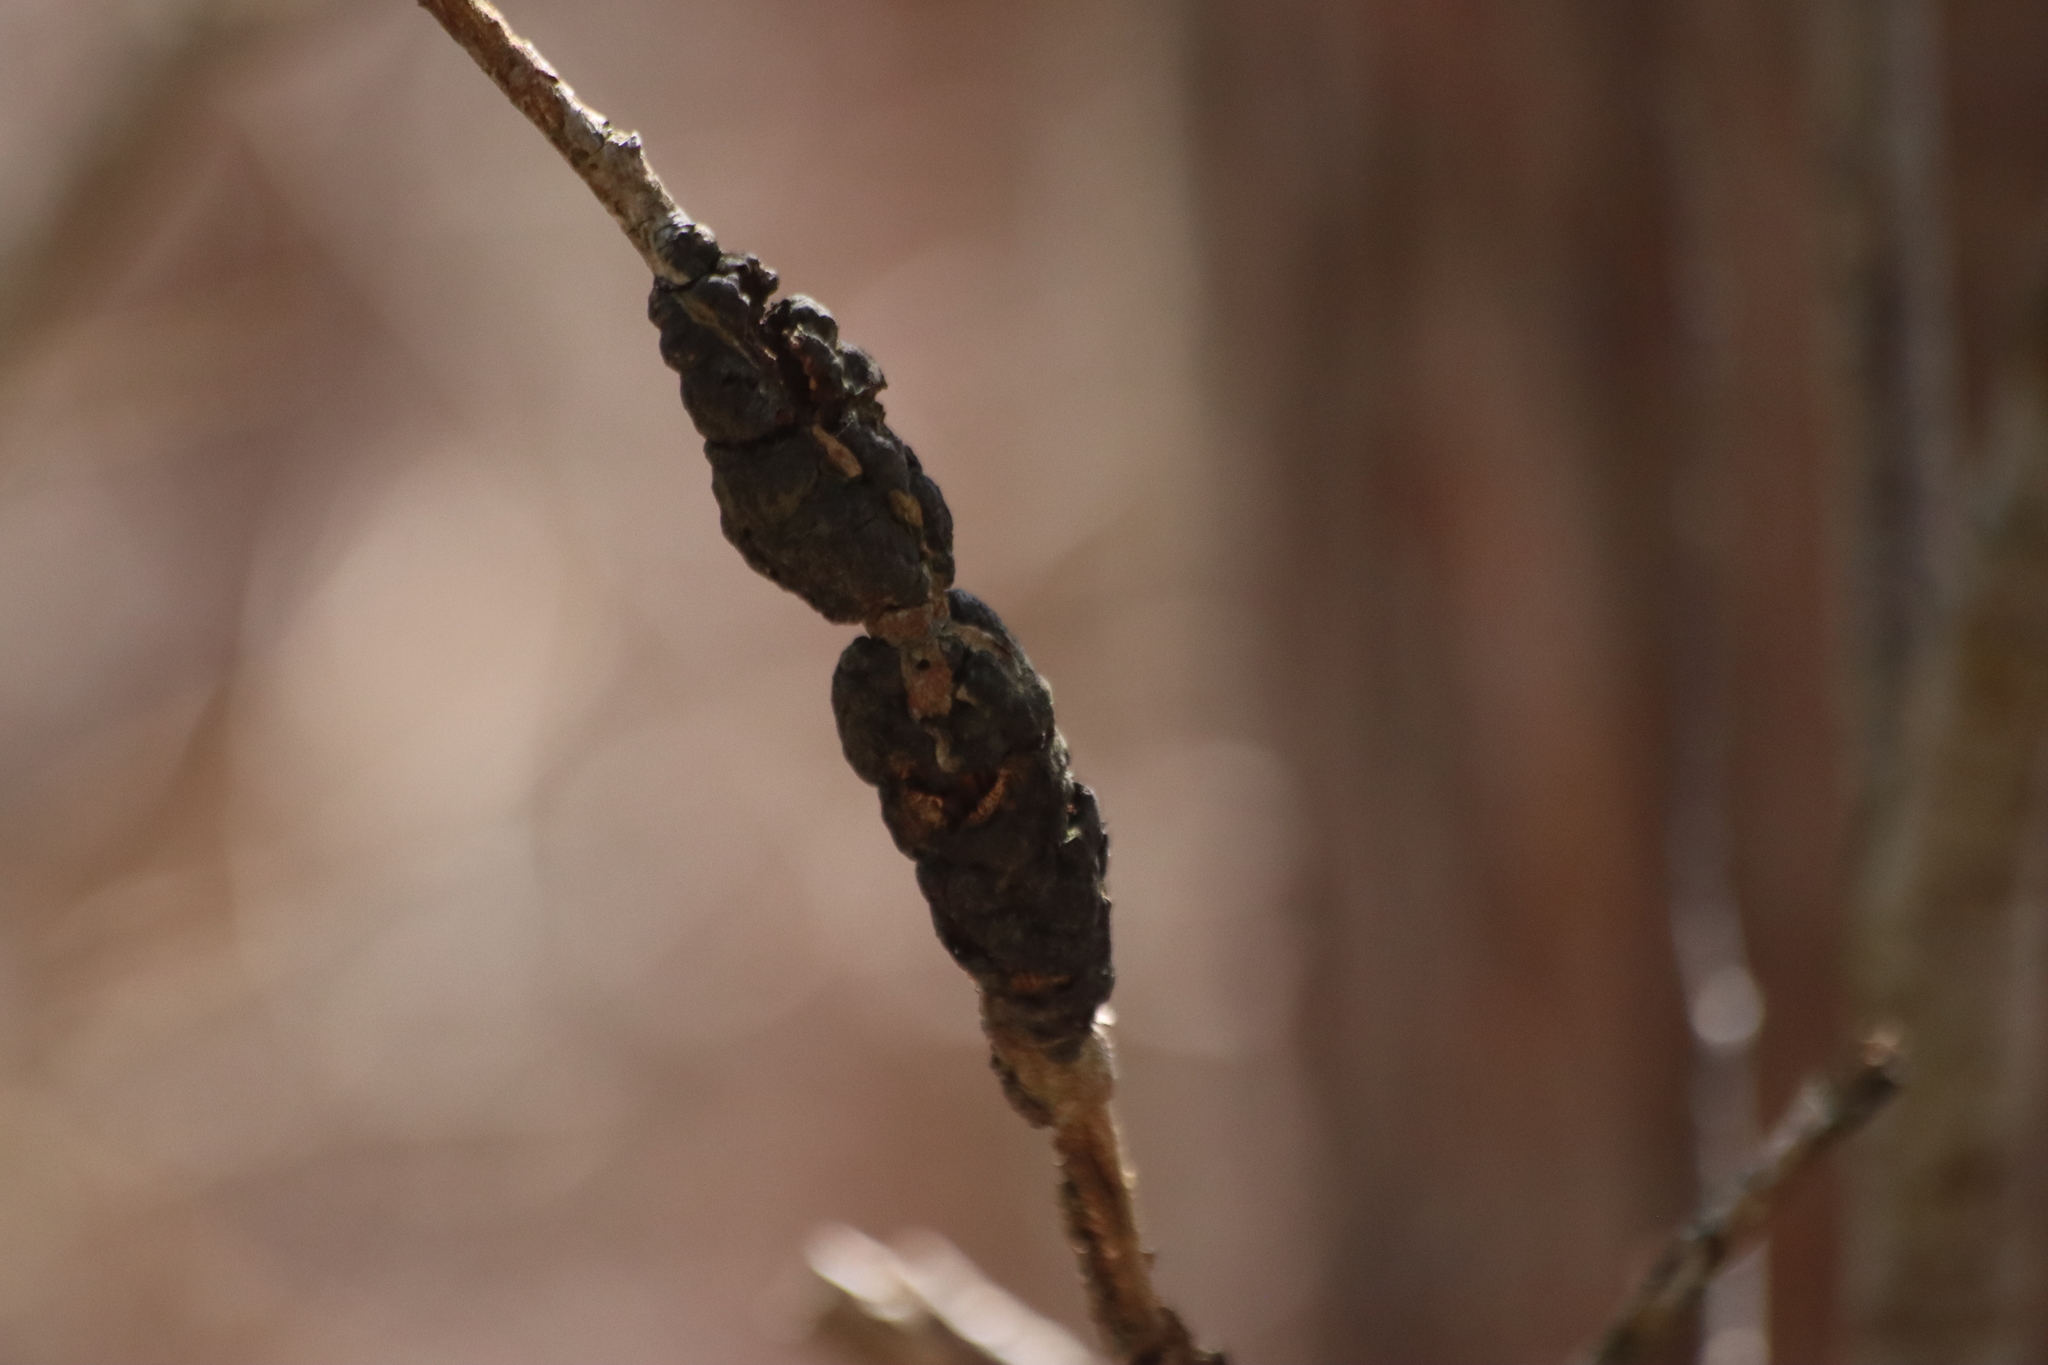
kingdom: Fungi
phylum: Ascomycota
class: Dothideomycetes
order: Venturiales
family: Venturiaceae
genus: Apiosporina
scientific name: Apiosporina morbosa
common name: Black knot
